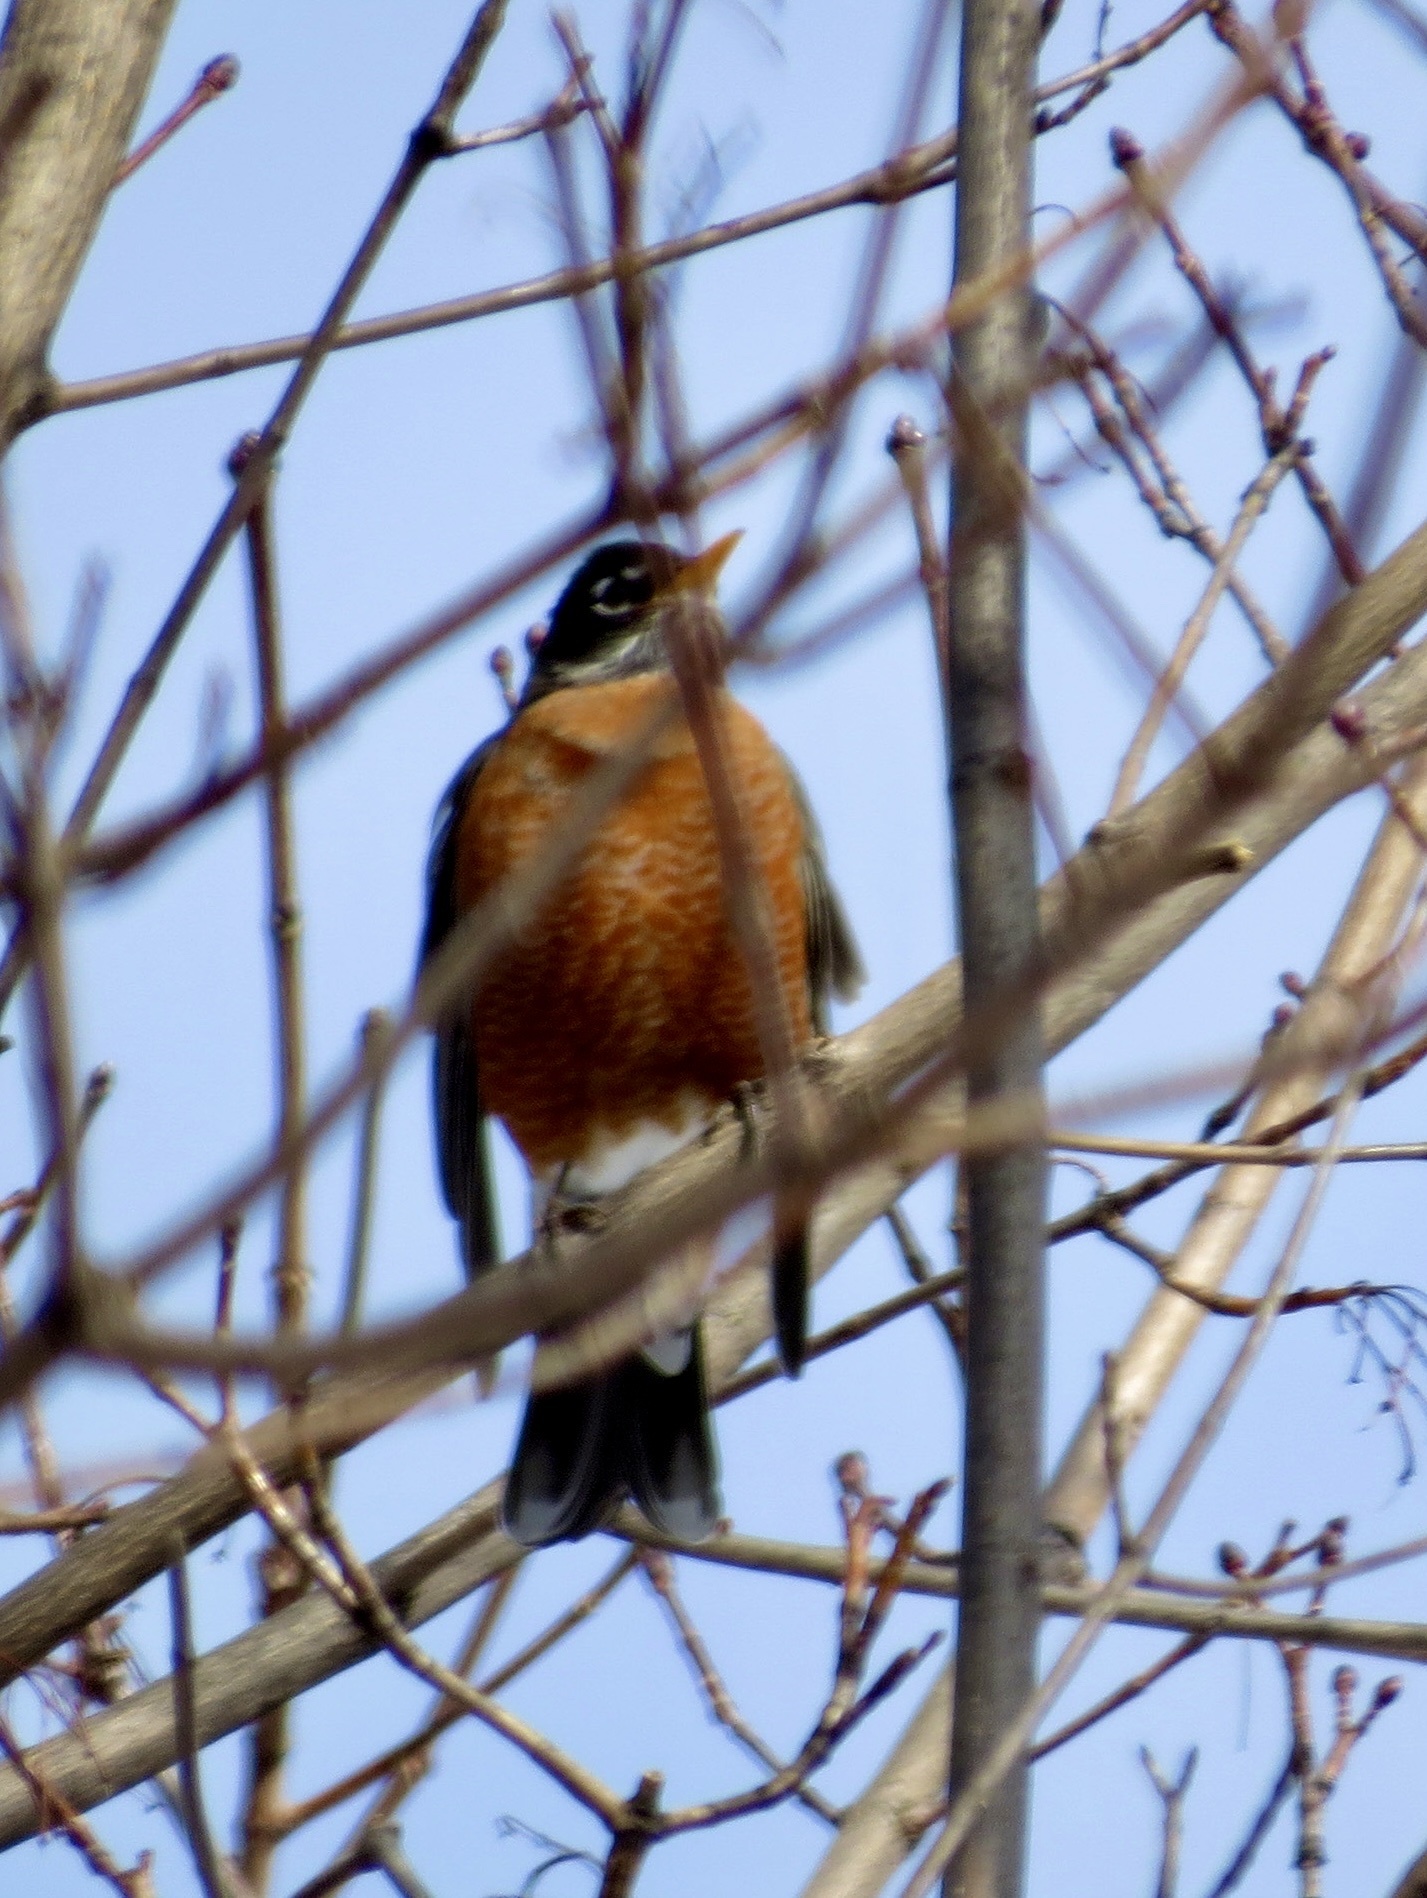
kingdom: Animalia
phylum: Chordata
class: Aves
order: Passeriformes
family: Turdidae
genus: Turdus
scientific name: Turdus migratorius
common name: American robin
